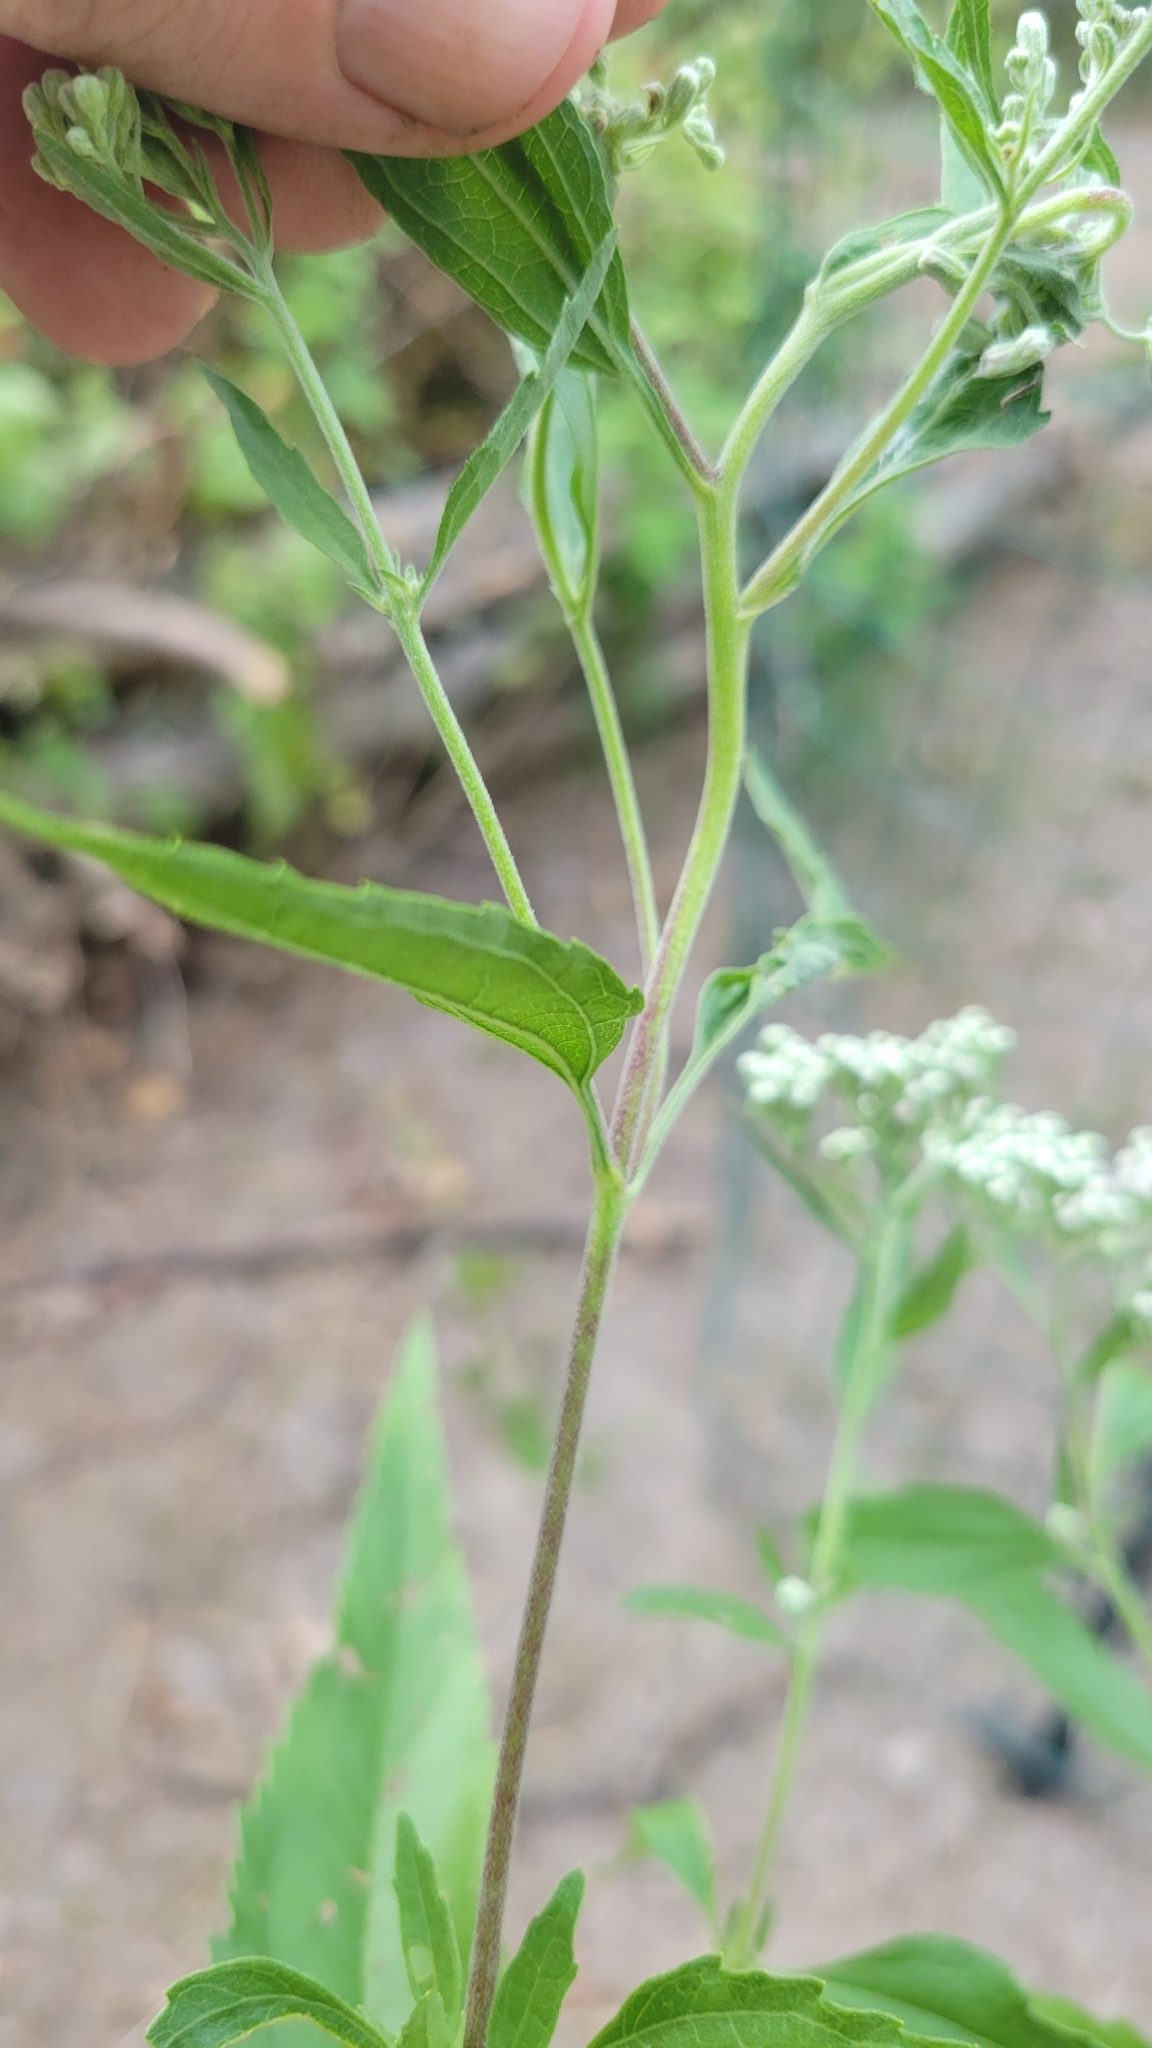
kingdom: Plantae
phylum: Tracheophyta
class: Magnoliopsida
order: Asterales
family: Asteraceae
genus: Eupatorium
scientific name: Eupatorium serotinum
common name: Late boneset
